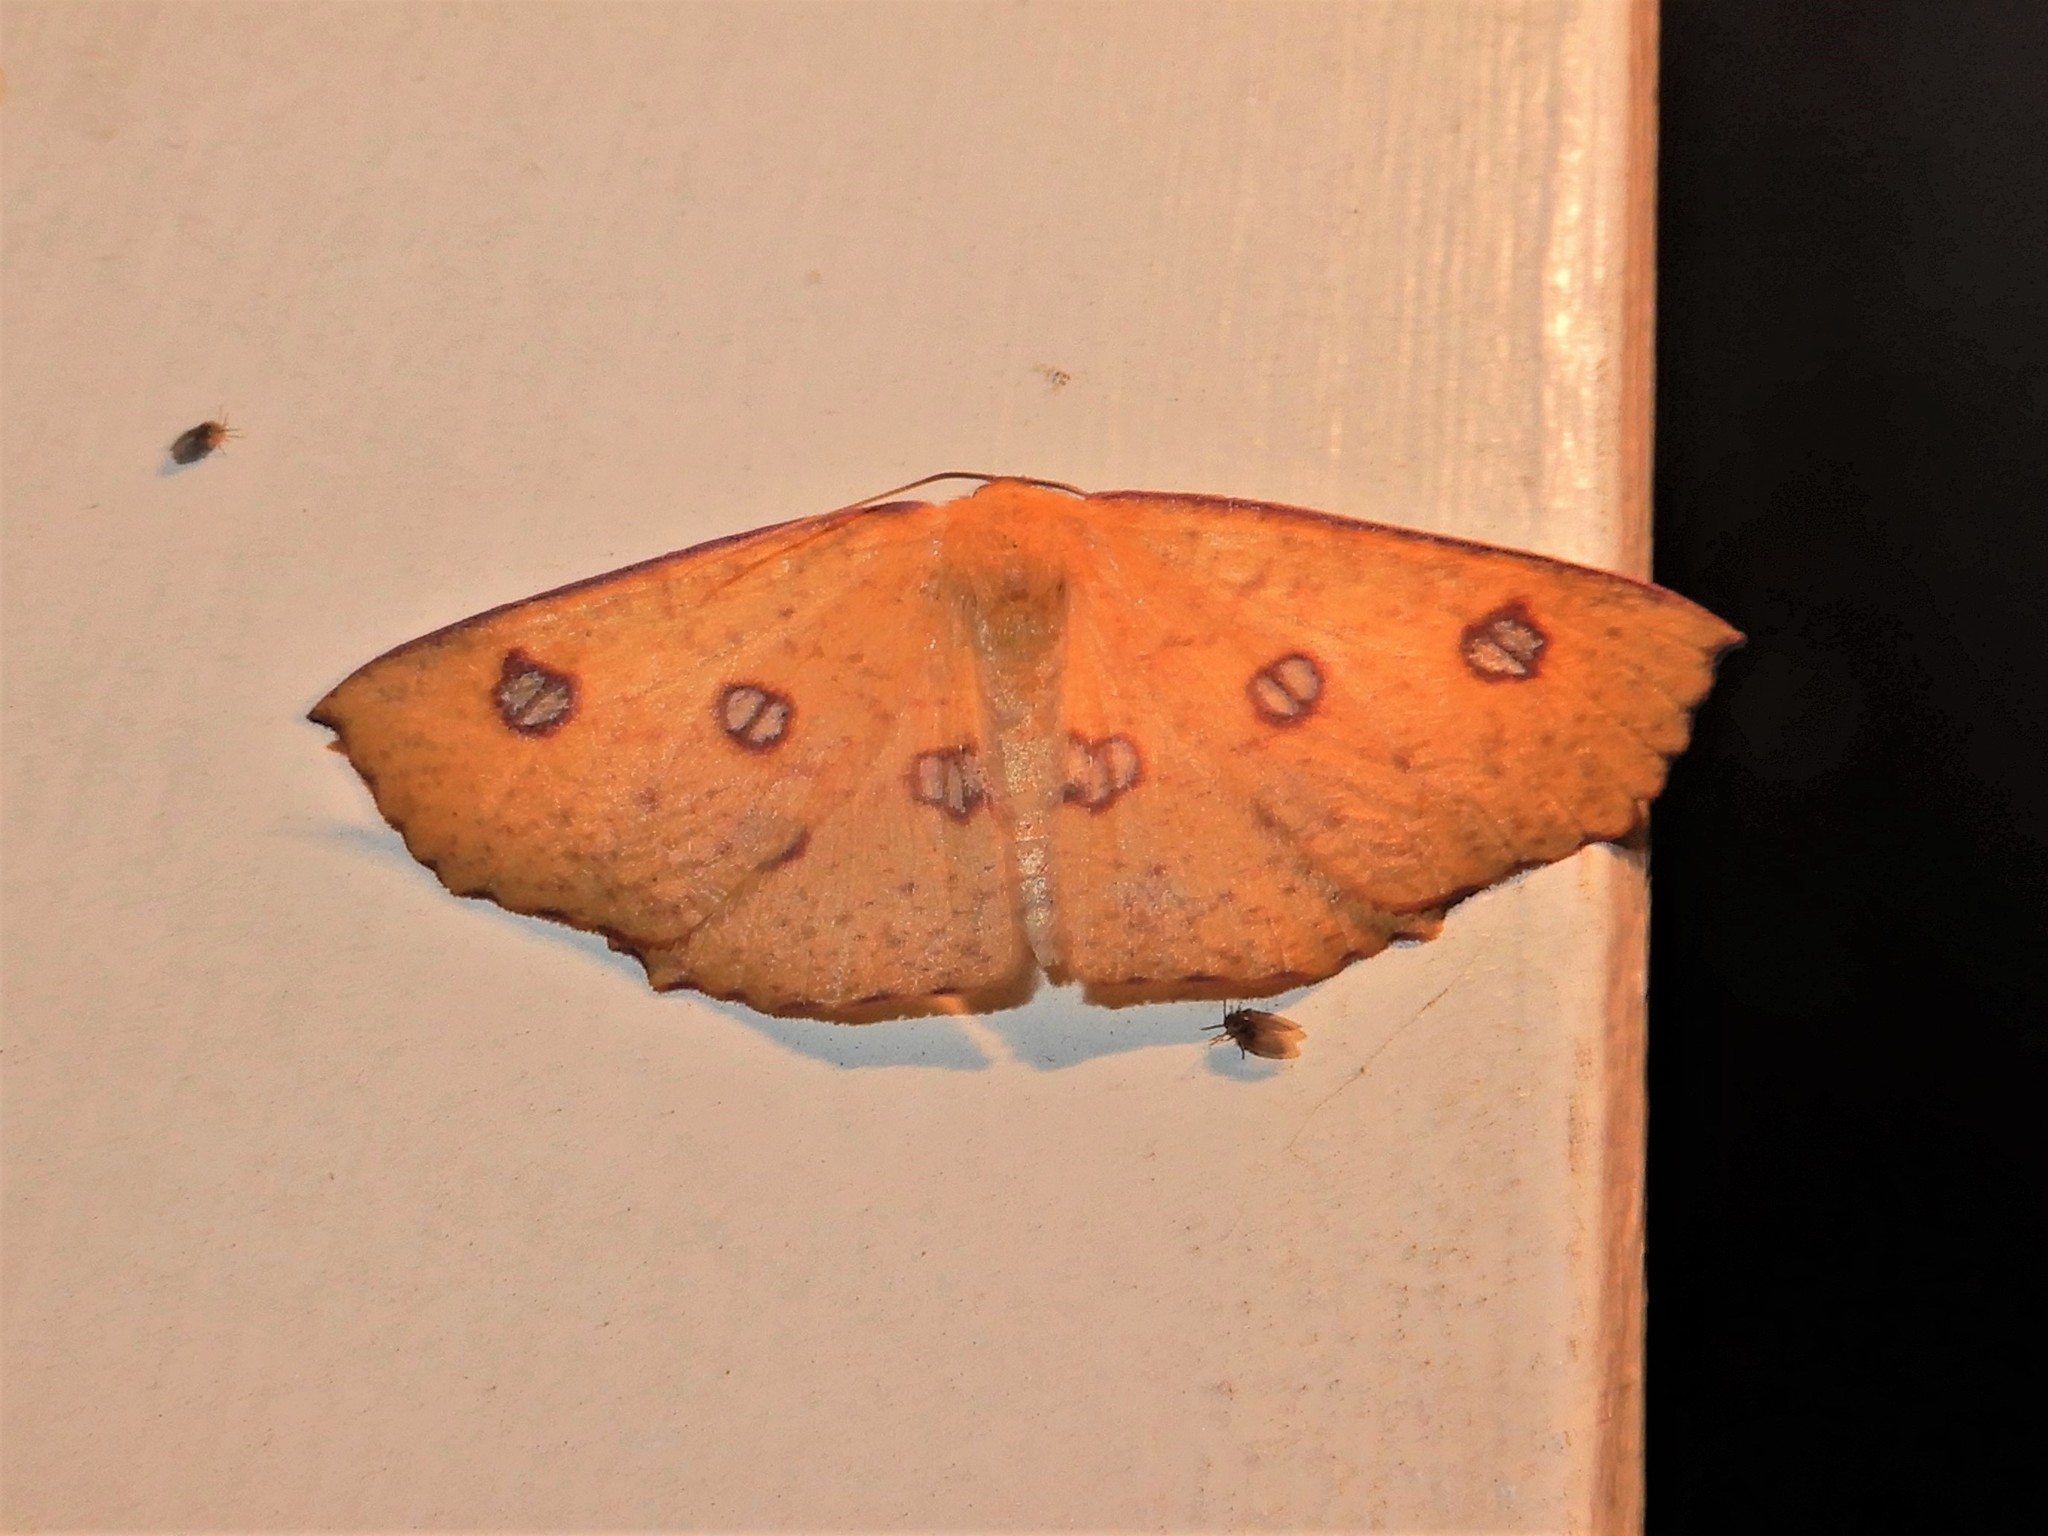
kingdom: Animalia
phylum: Arthropoda
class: Insecta
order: Lepidoptera
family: Geometridae
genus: Xyridacma
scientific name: Xyridacma alectoraria
